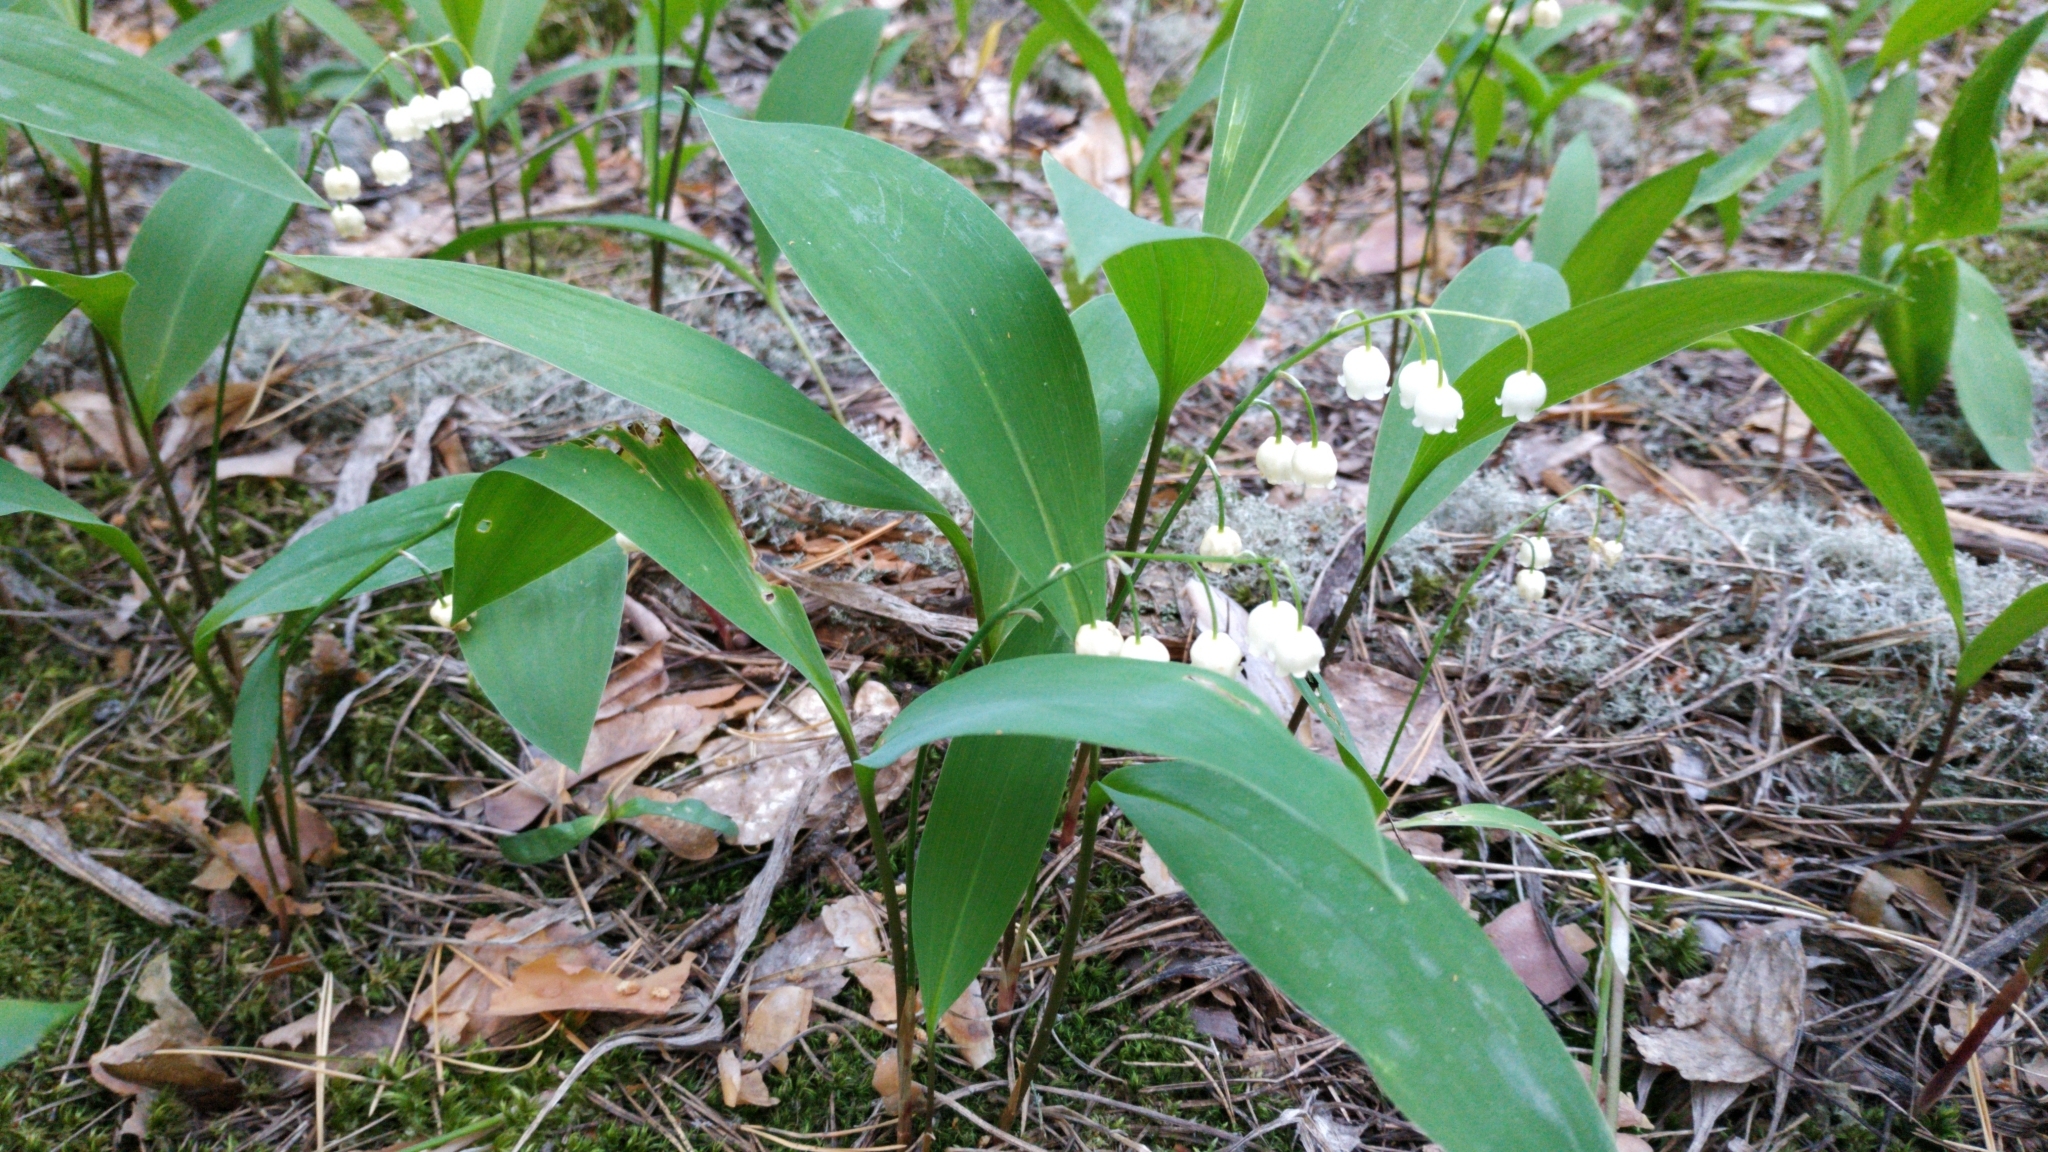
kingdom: Plantae
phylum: Tracheophyta
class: Liliopsida
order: Asparagales
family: Asparagaceae
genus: Convallaria
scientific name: Convallaria majalis
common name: Lily-of-the-valley
